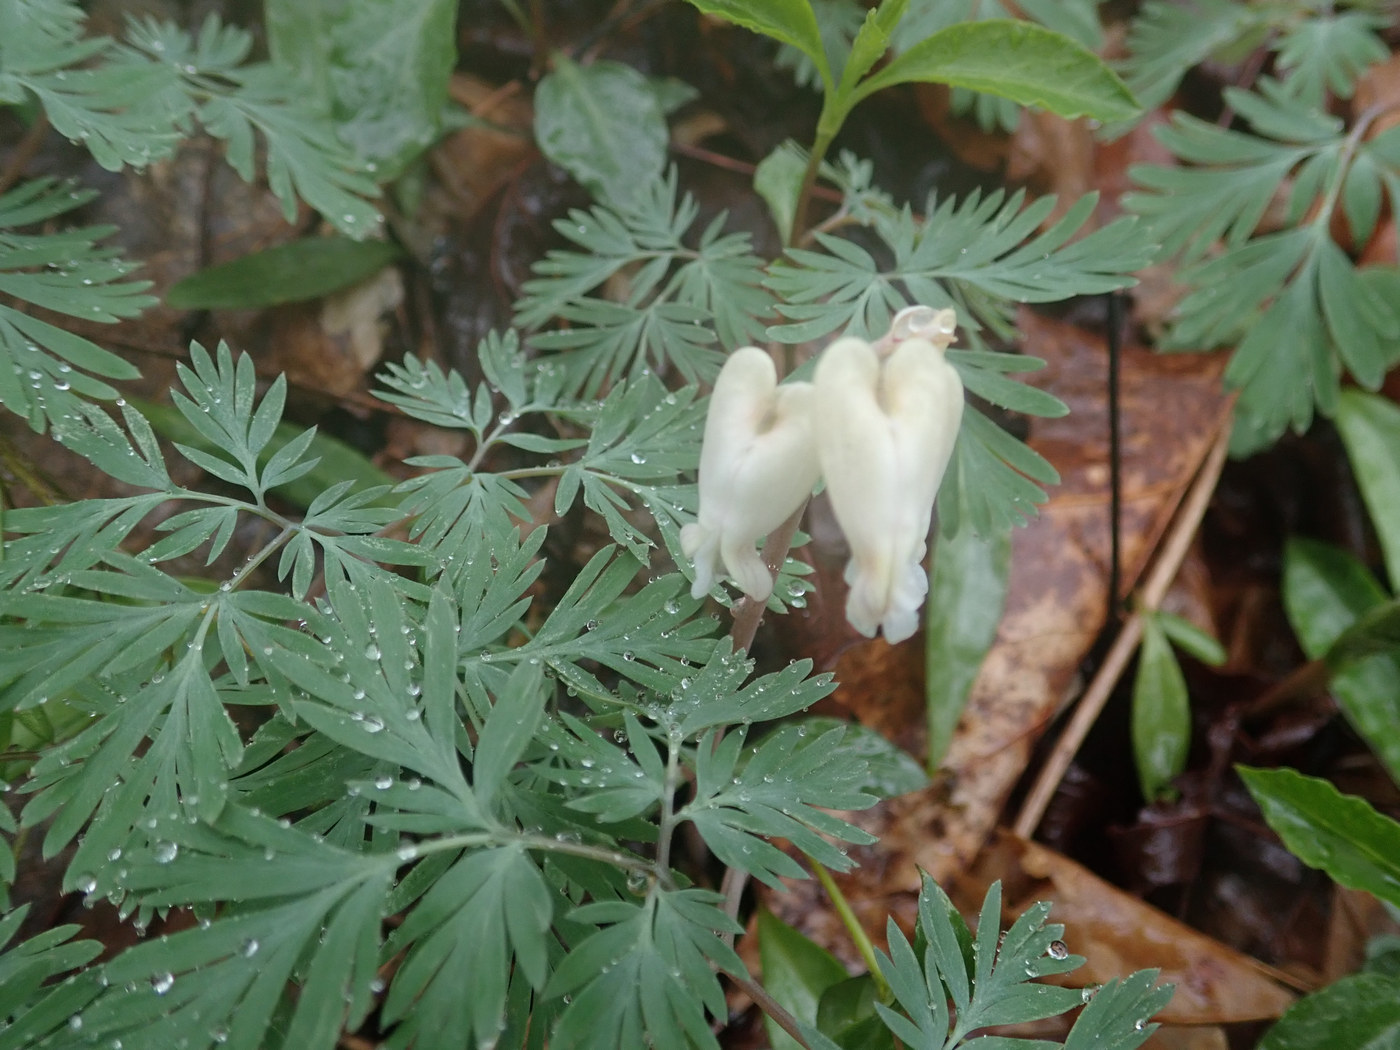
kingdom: Plantae
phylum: Tracheophyta
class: Magnoliopsida
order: Ranunculales
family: Papaveraceae
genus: Dicentra
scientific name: Dicentra canadensis
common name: Squirrel-corn
